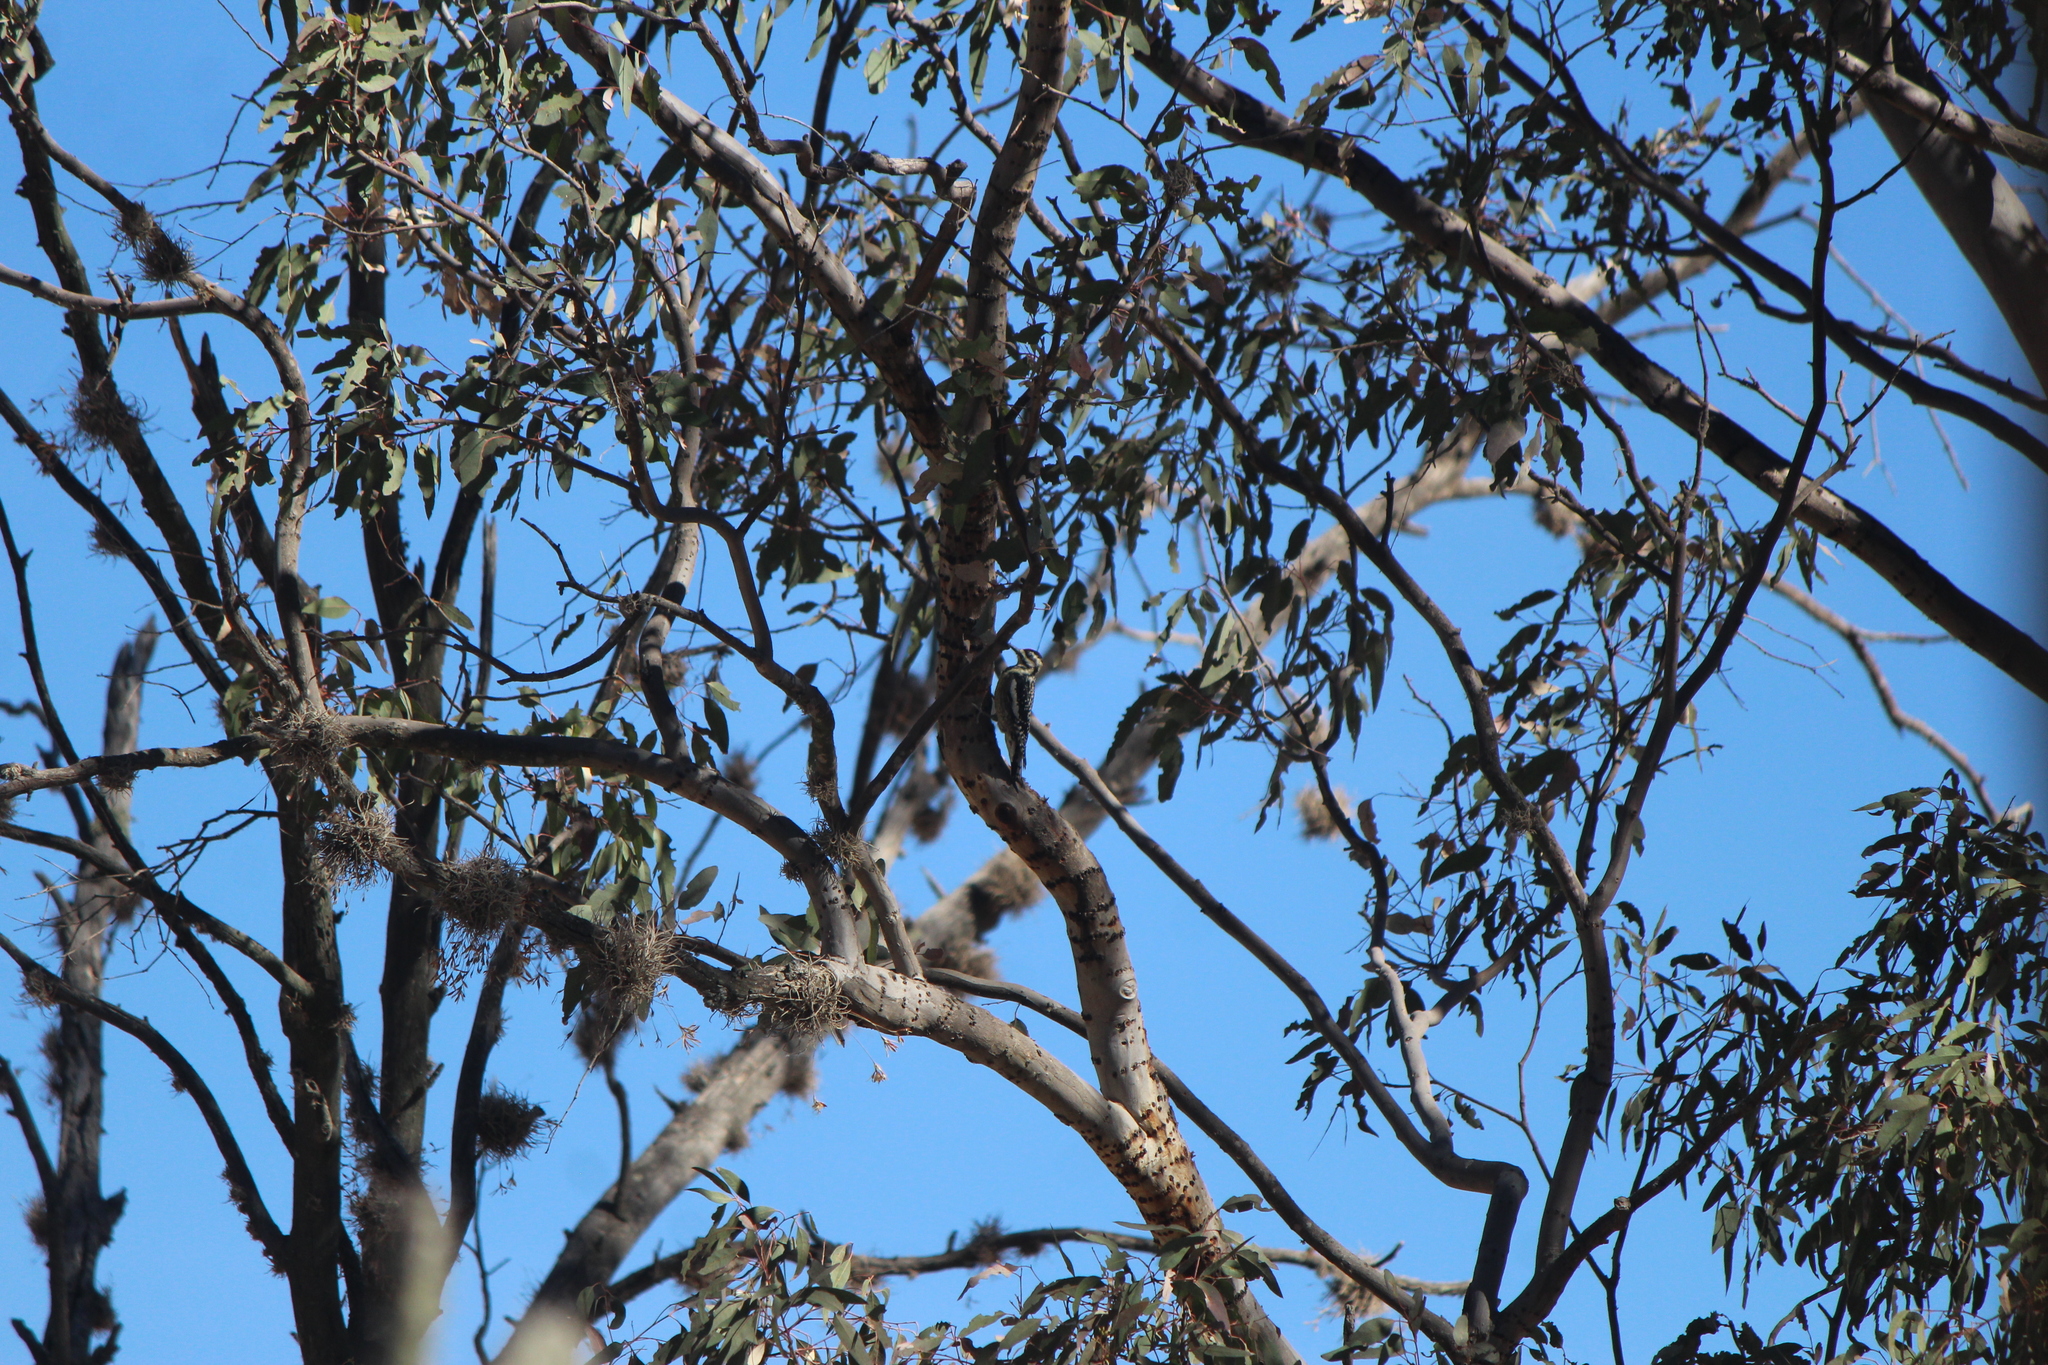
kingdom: Animalia
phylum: Chordata
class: Aves
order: Piciformes
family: Picidae
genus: Sphyrapicus
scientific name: Sphyrapicus varius
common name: Yellow-bellied sapsucker
